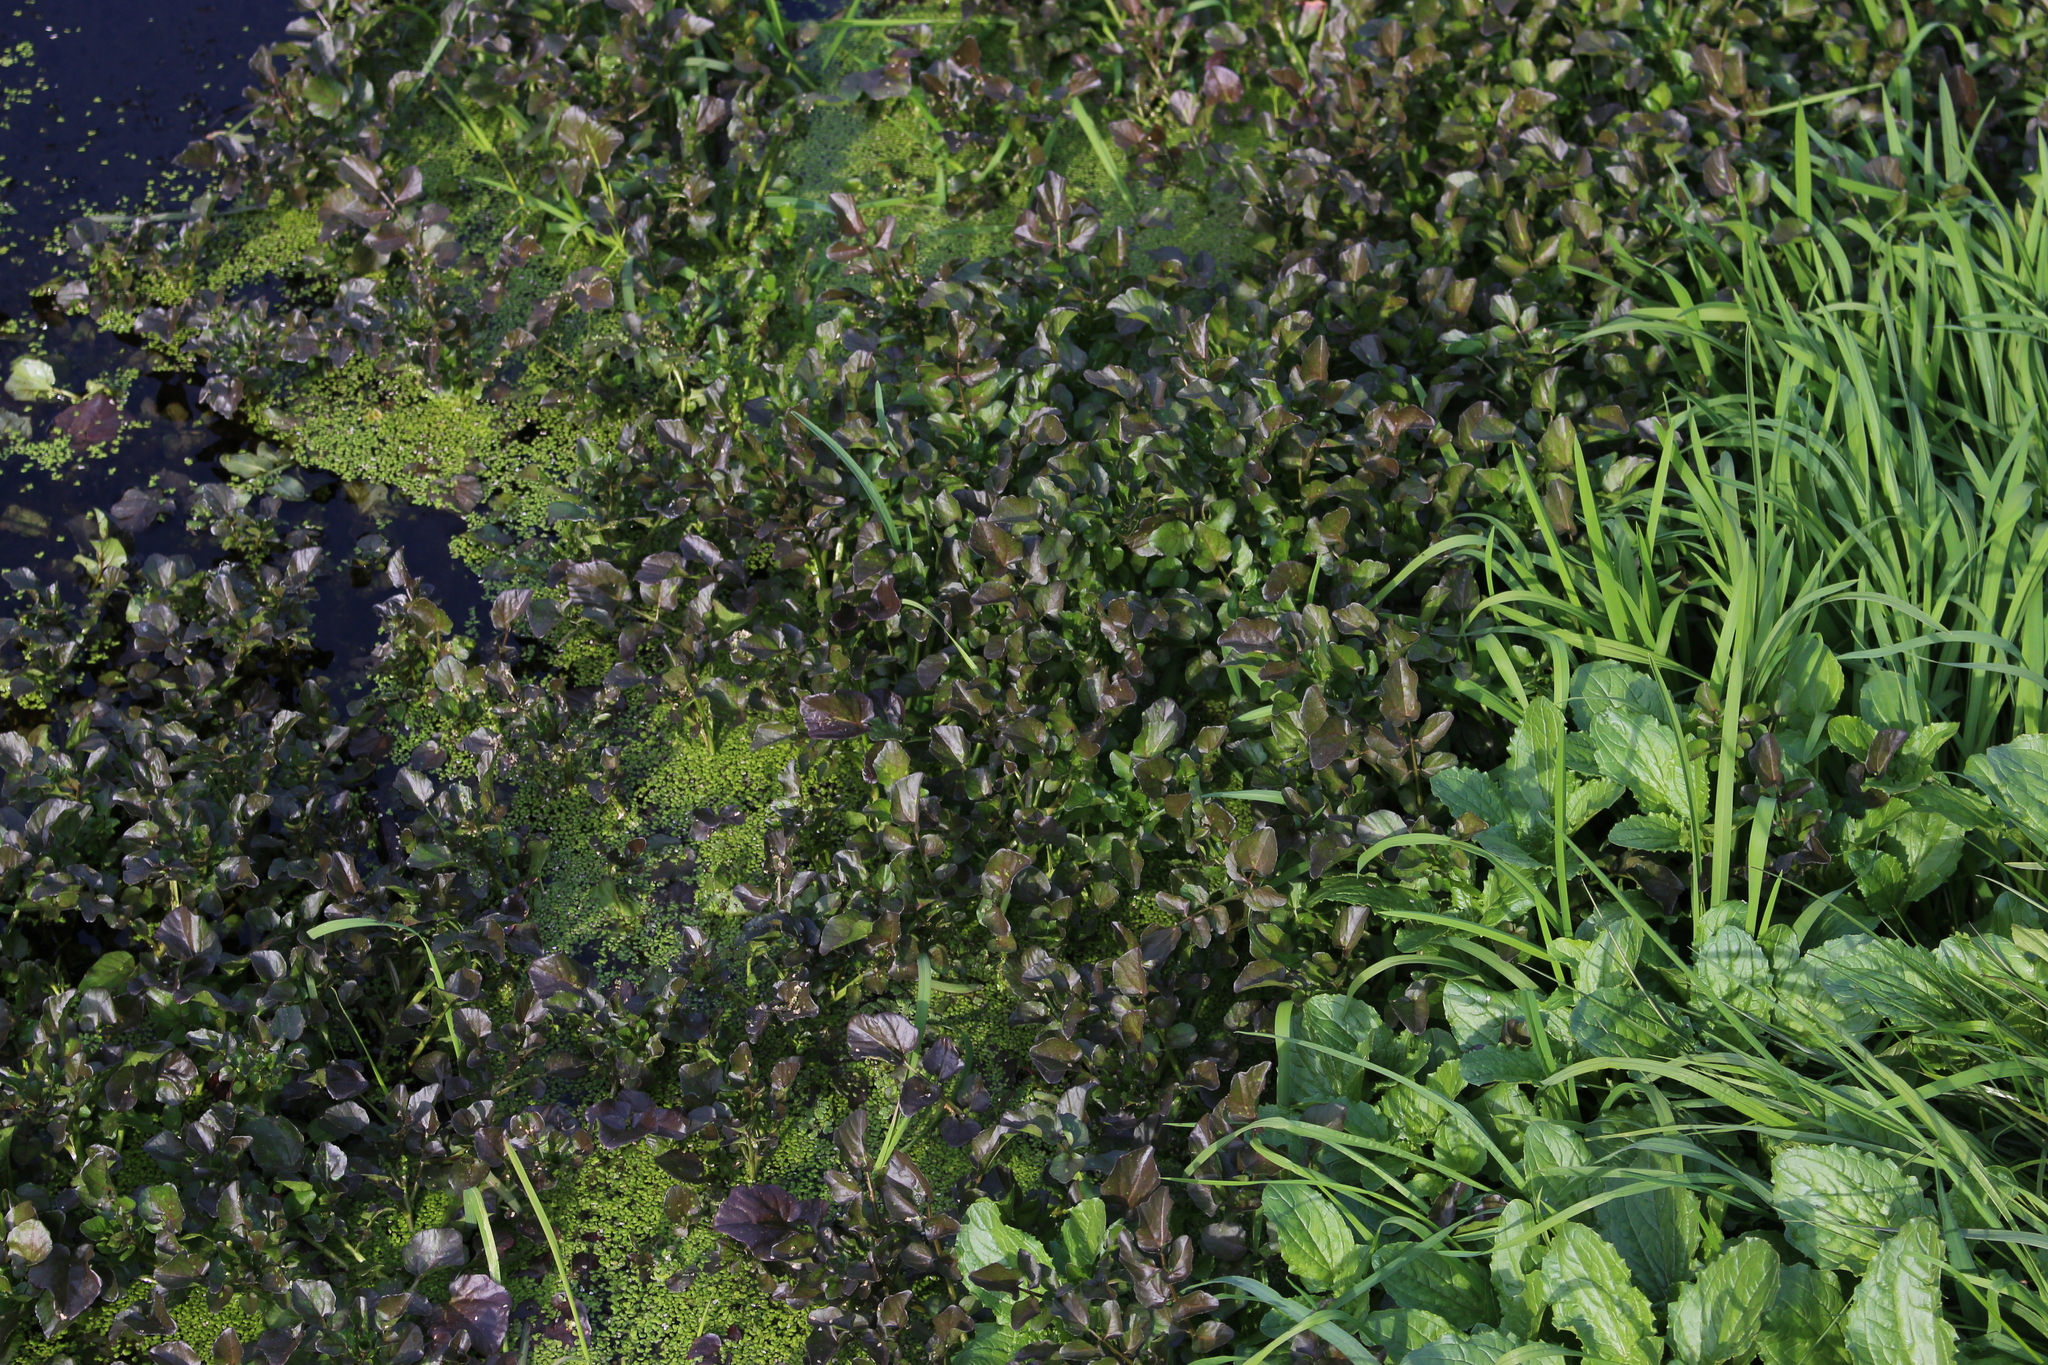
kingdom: Plantae
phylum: Tracheophyta
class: Magnoliopsida
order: Brassicales
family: Brassicaceae
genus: Nasturtium
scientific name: Nasturtium microphyllum
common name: Onerow yellowcress
